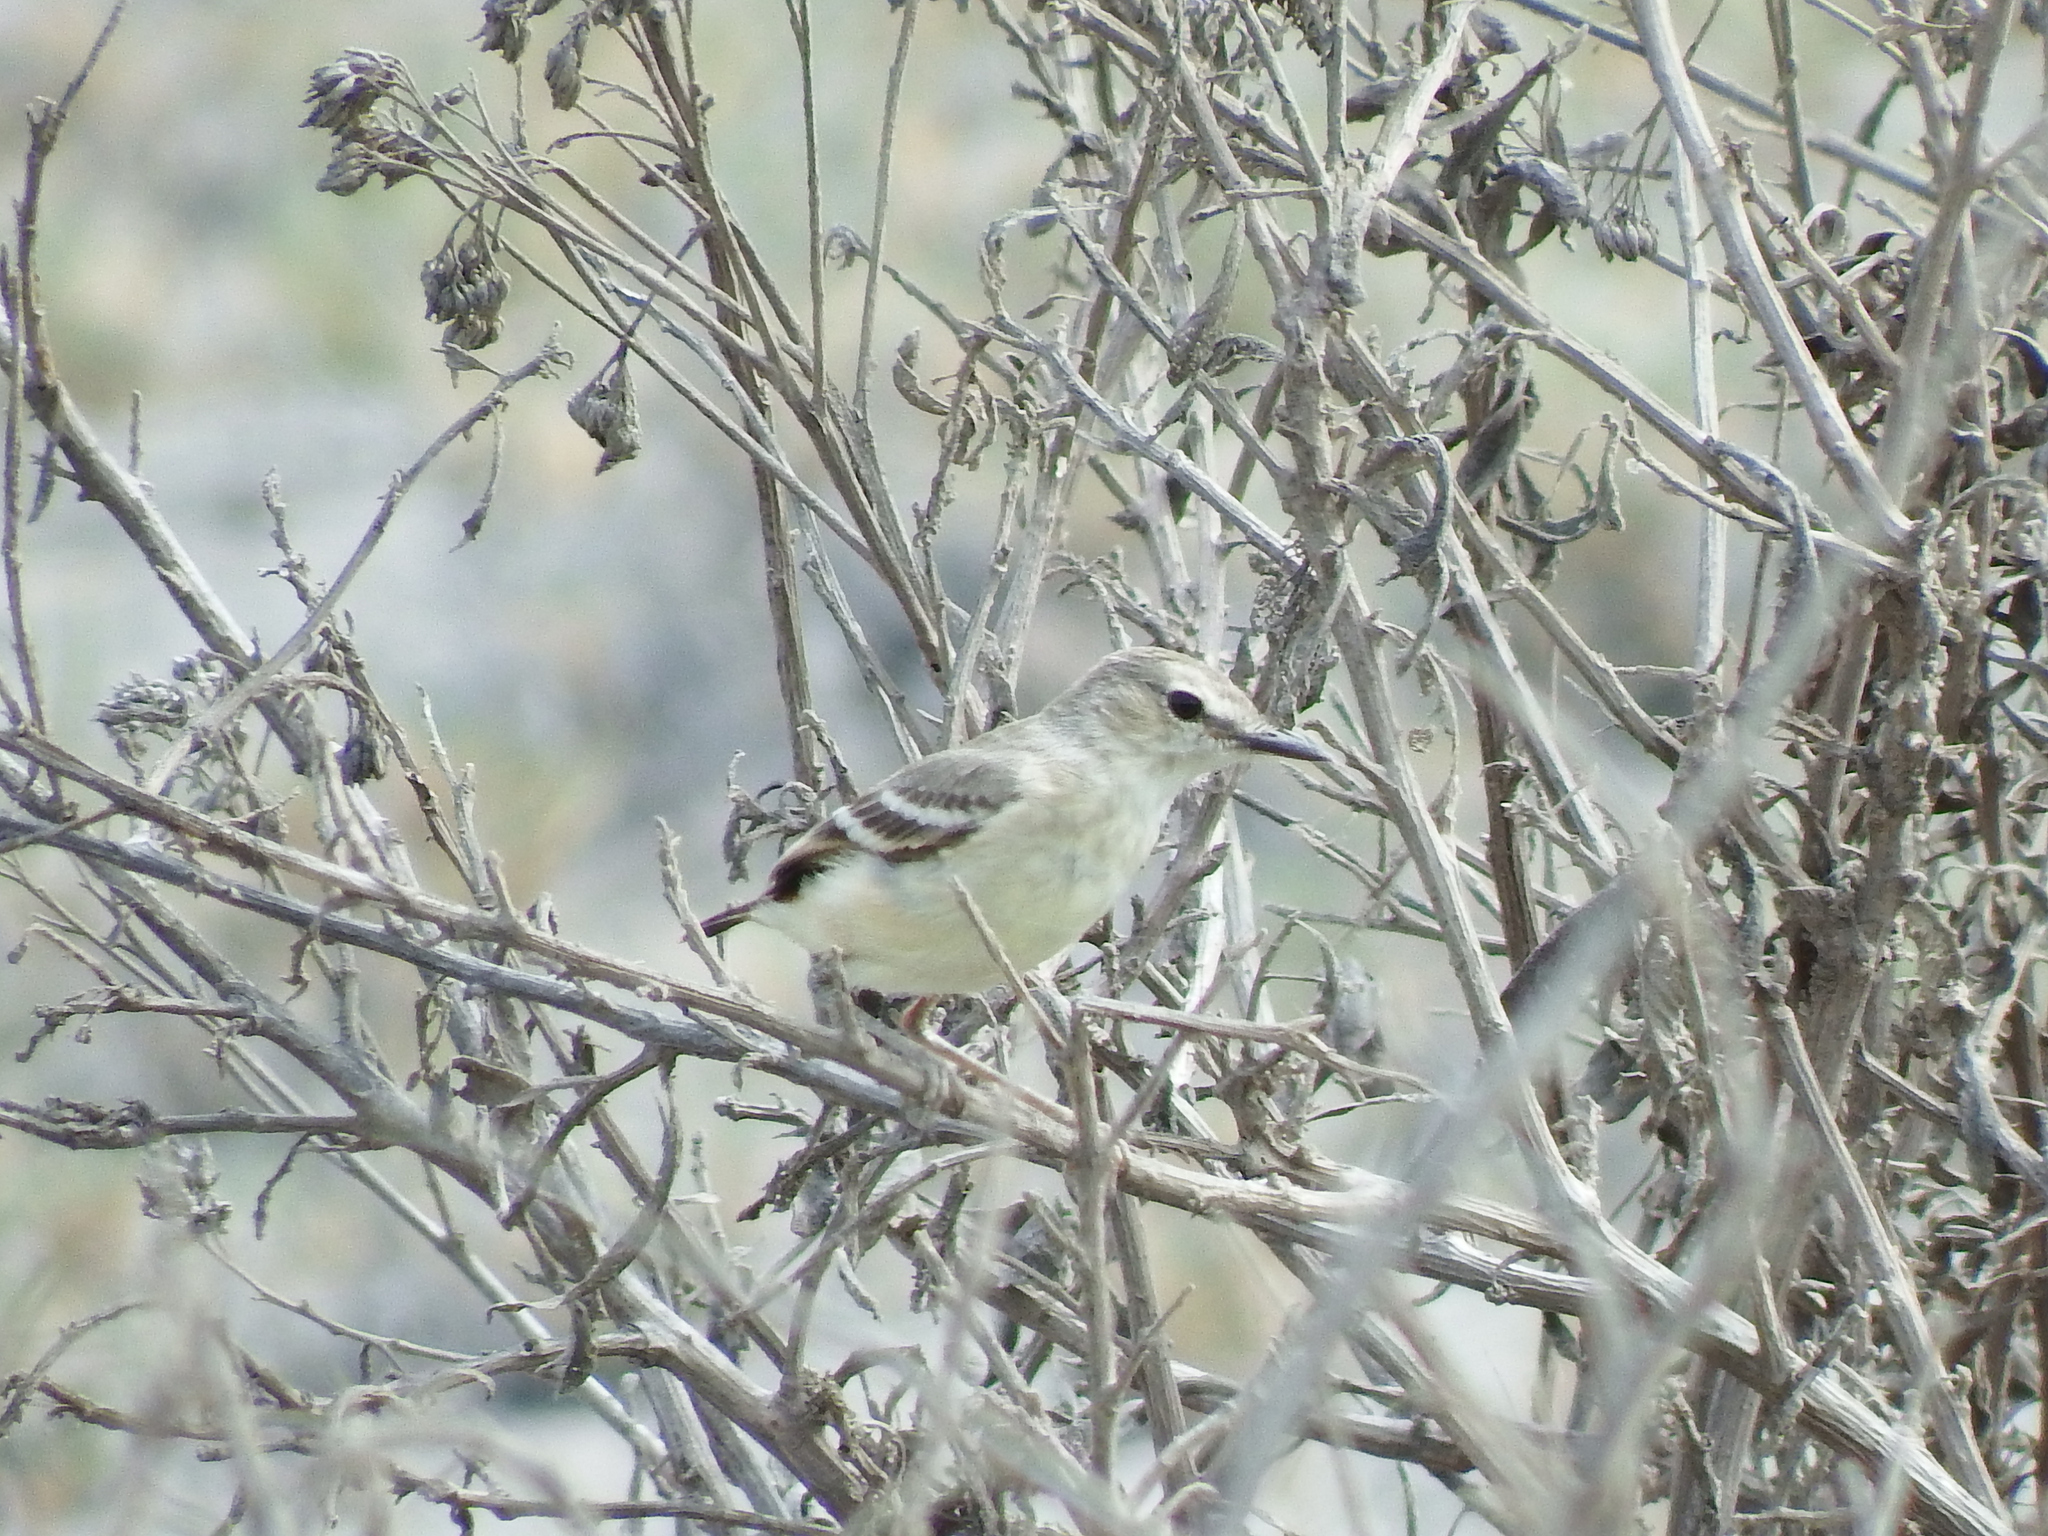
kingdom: Animalia
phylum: Chordata
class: Aves
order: Passeriformes
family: Tyrannidae
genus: Muscigralla
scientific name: Muscigralla brevicauda
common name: Short-tailed field tyrant
